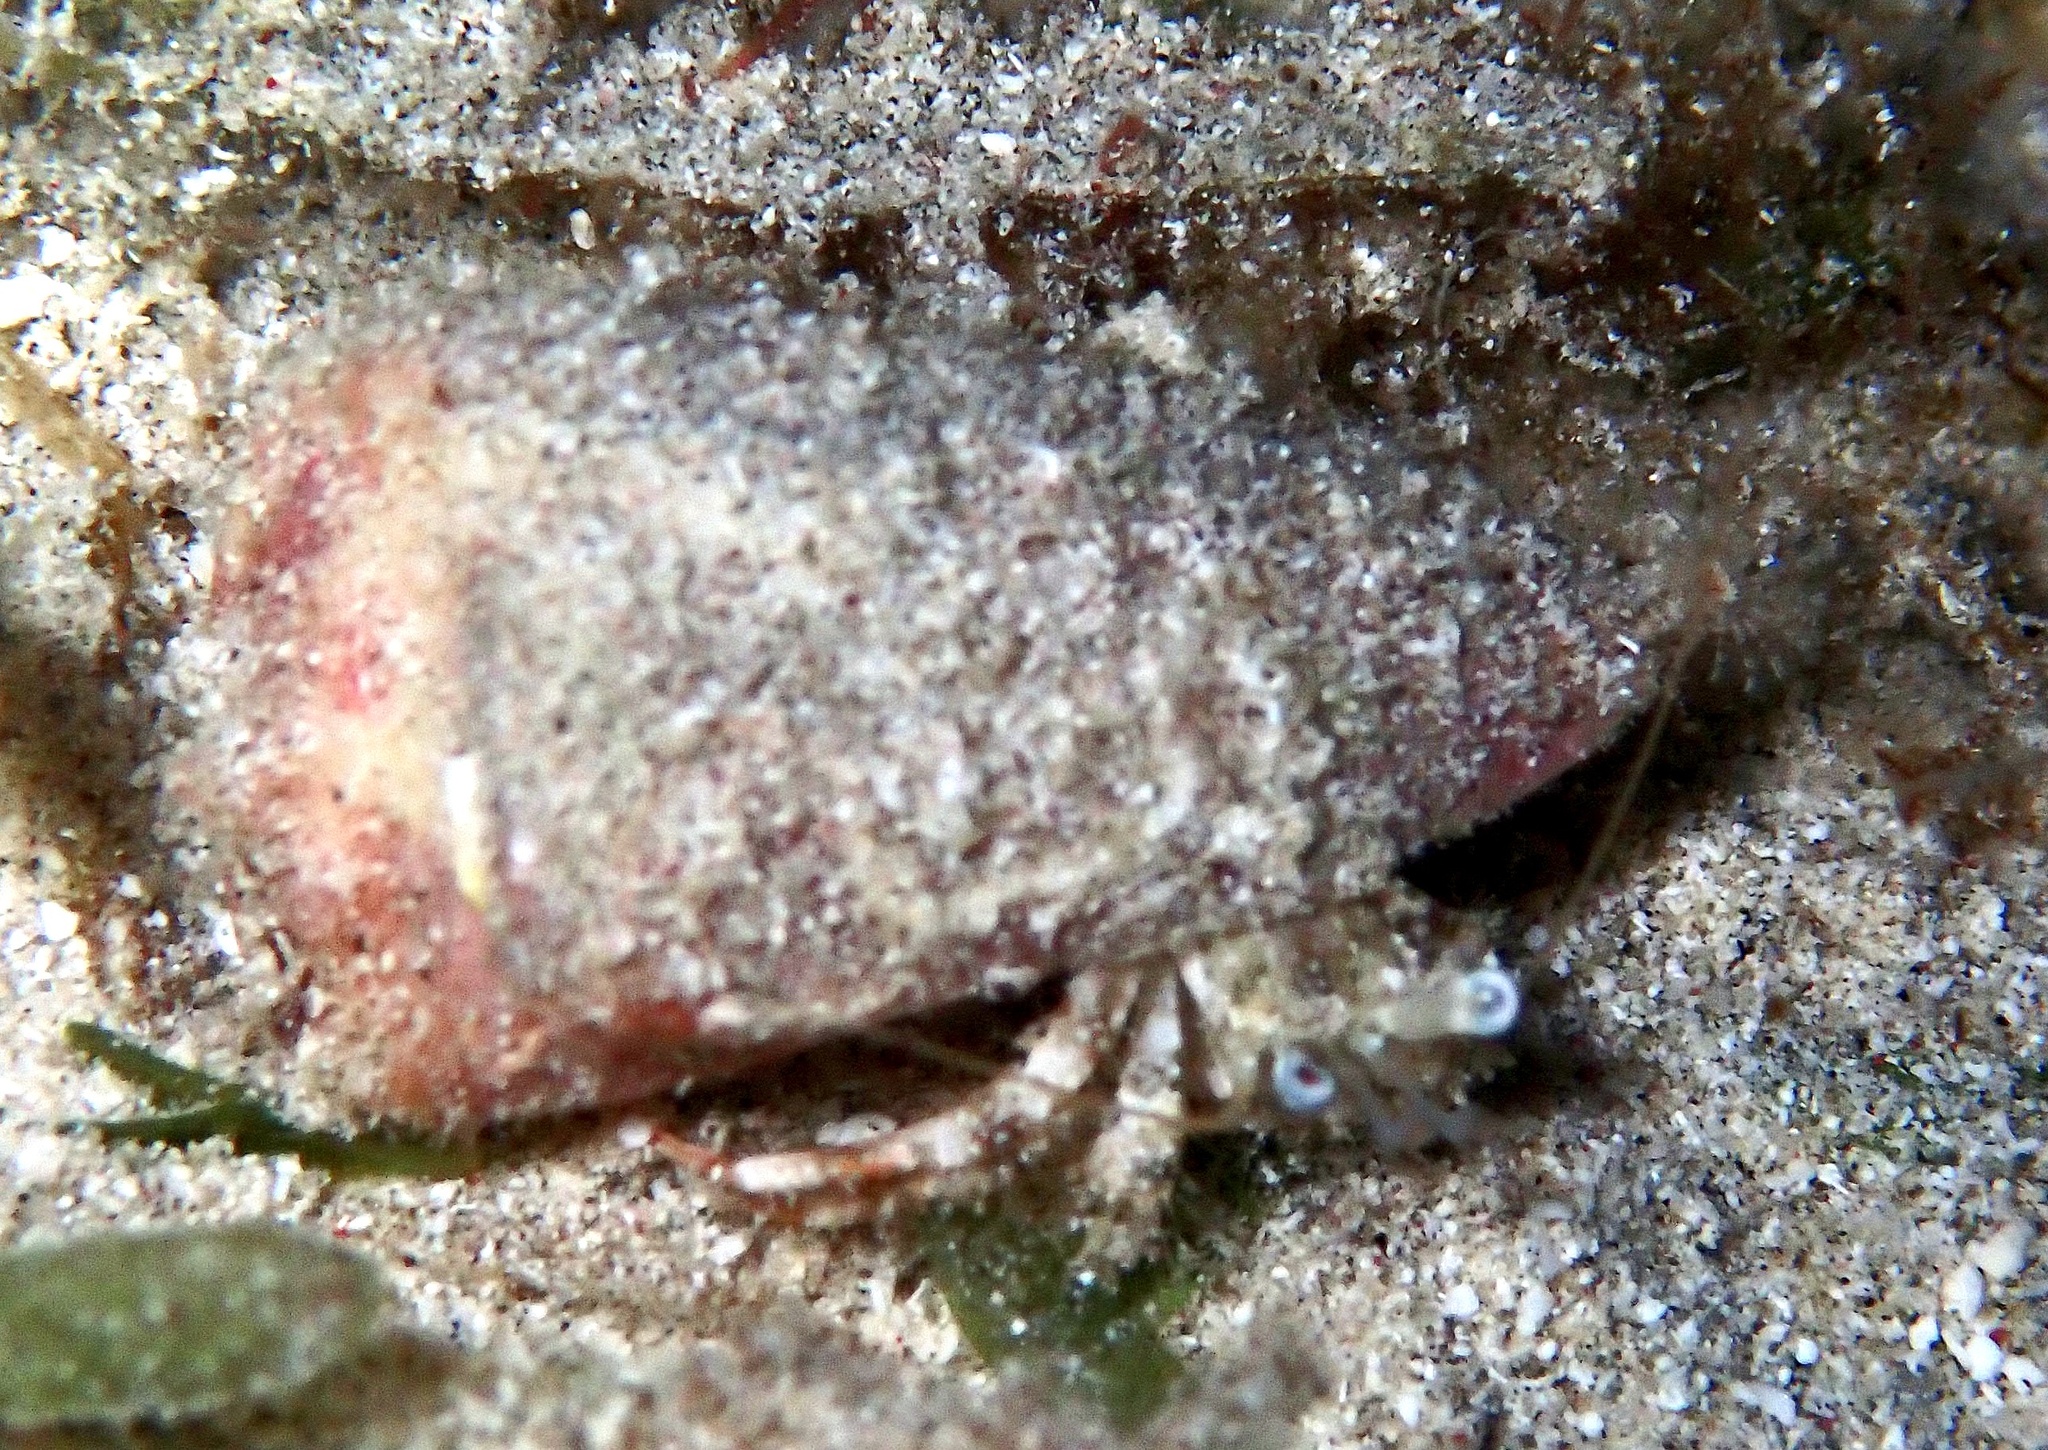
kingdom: Animalia
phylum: Arthropoda
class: Malacostraca
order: Decapoda
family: Diogenidae
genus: Dardanus
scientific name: Dardanus woodmasoni
